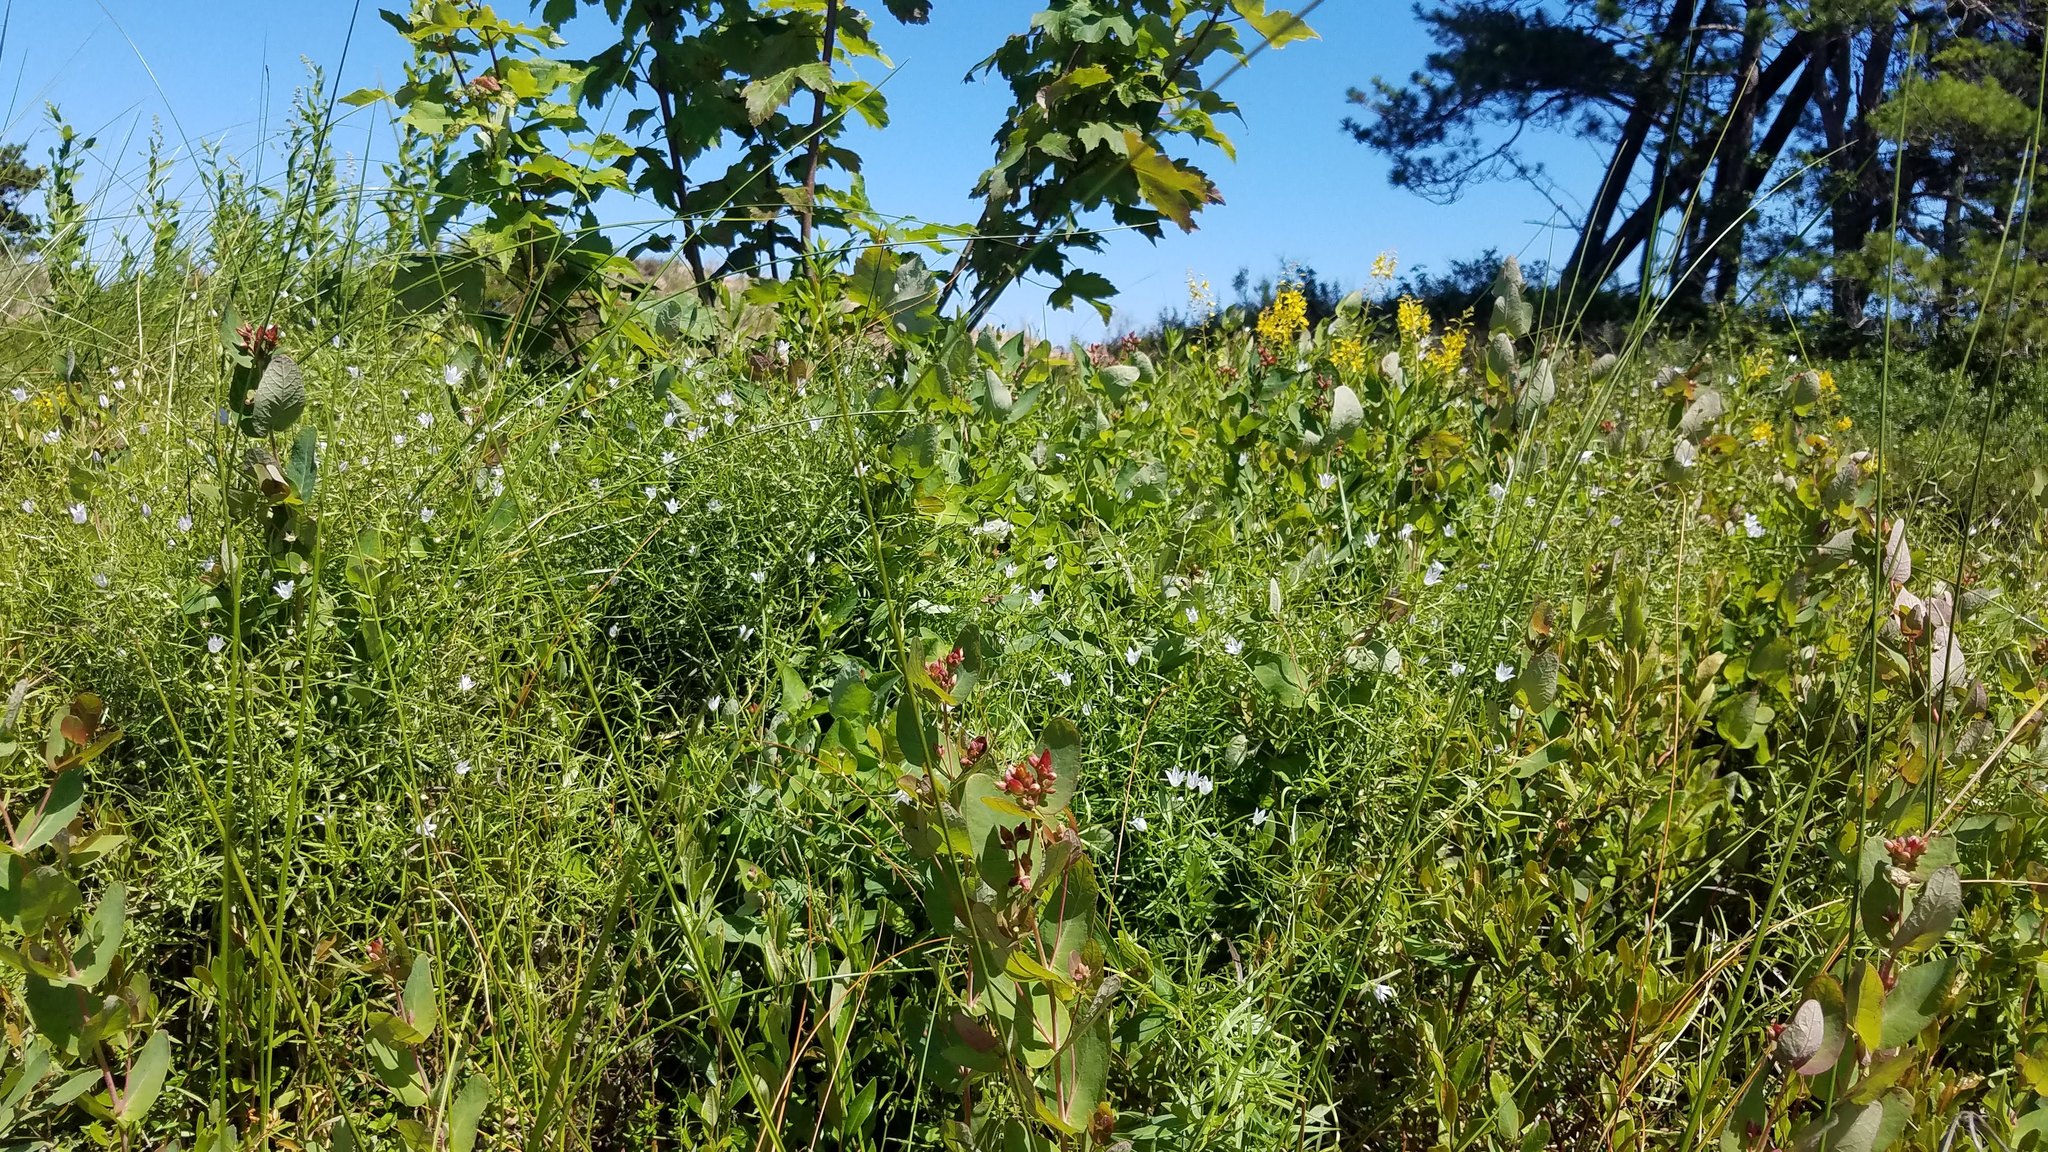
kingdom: Plantae
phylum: Tracheophyta
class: Magnoliopsida
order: Asterales
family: Campanulaceae
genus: Palustricodon
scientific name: Palustricodon aparinoides
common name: Bedstraw bellflower
